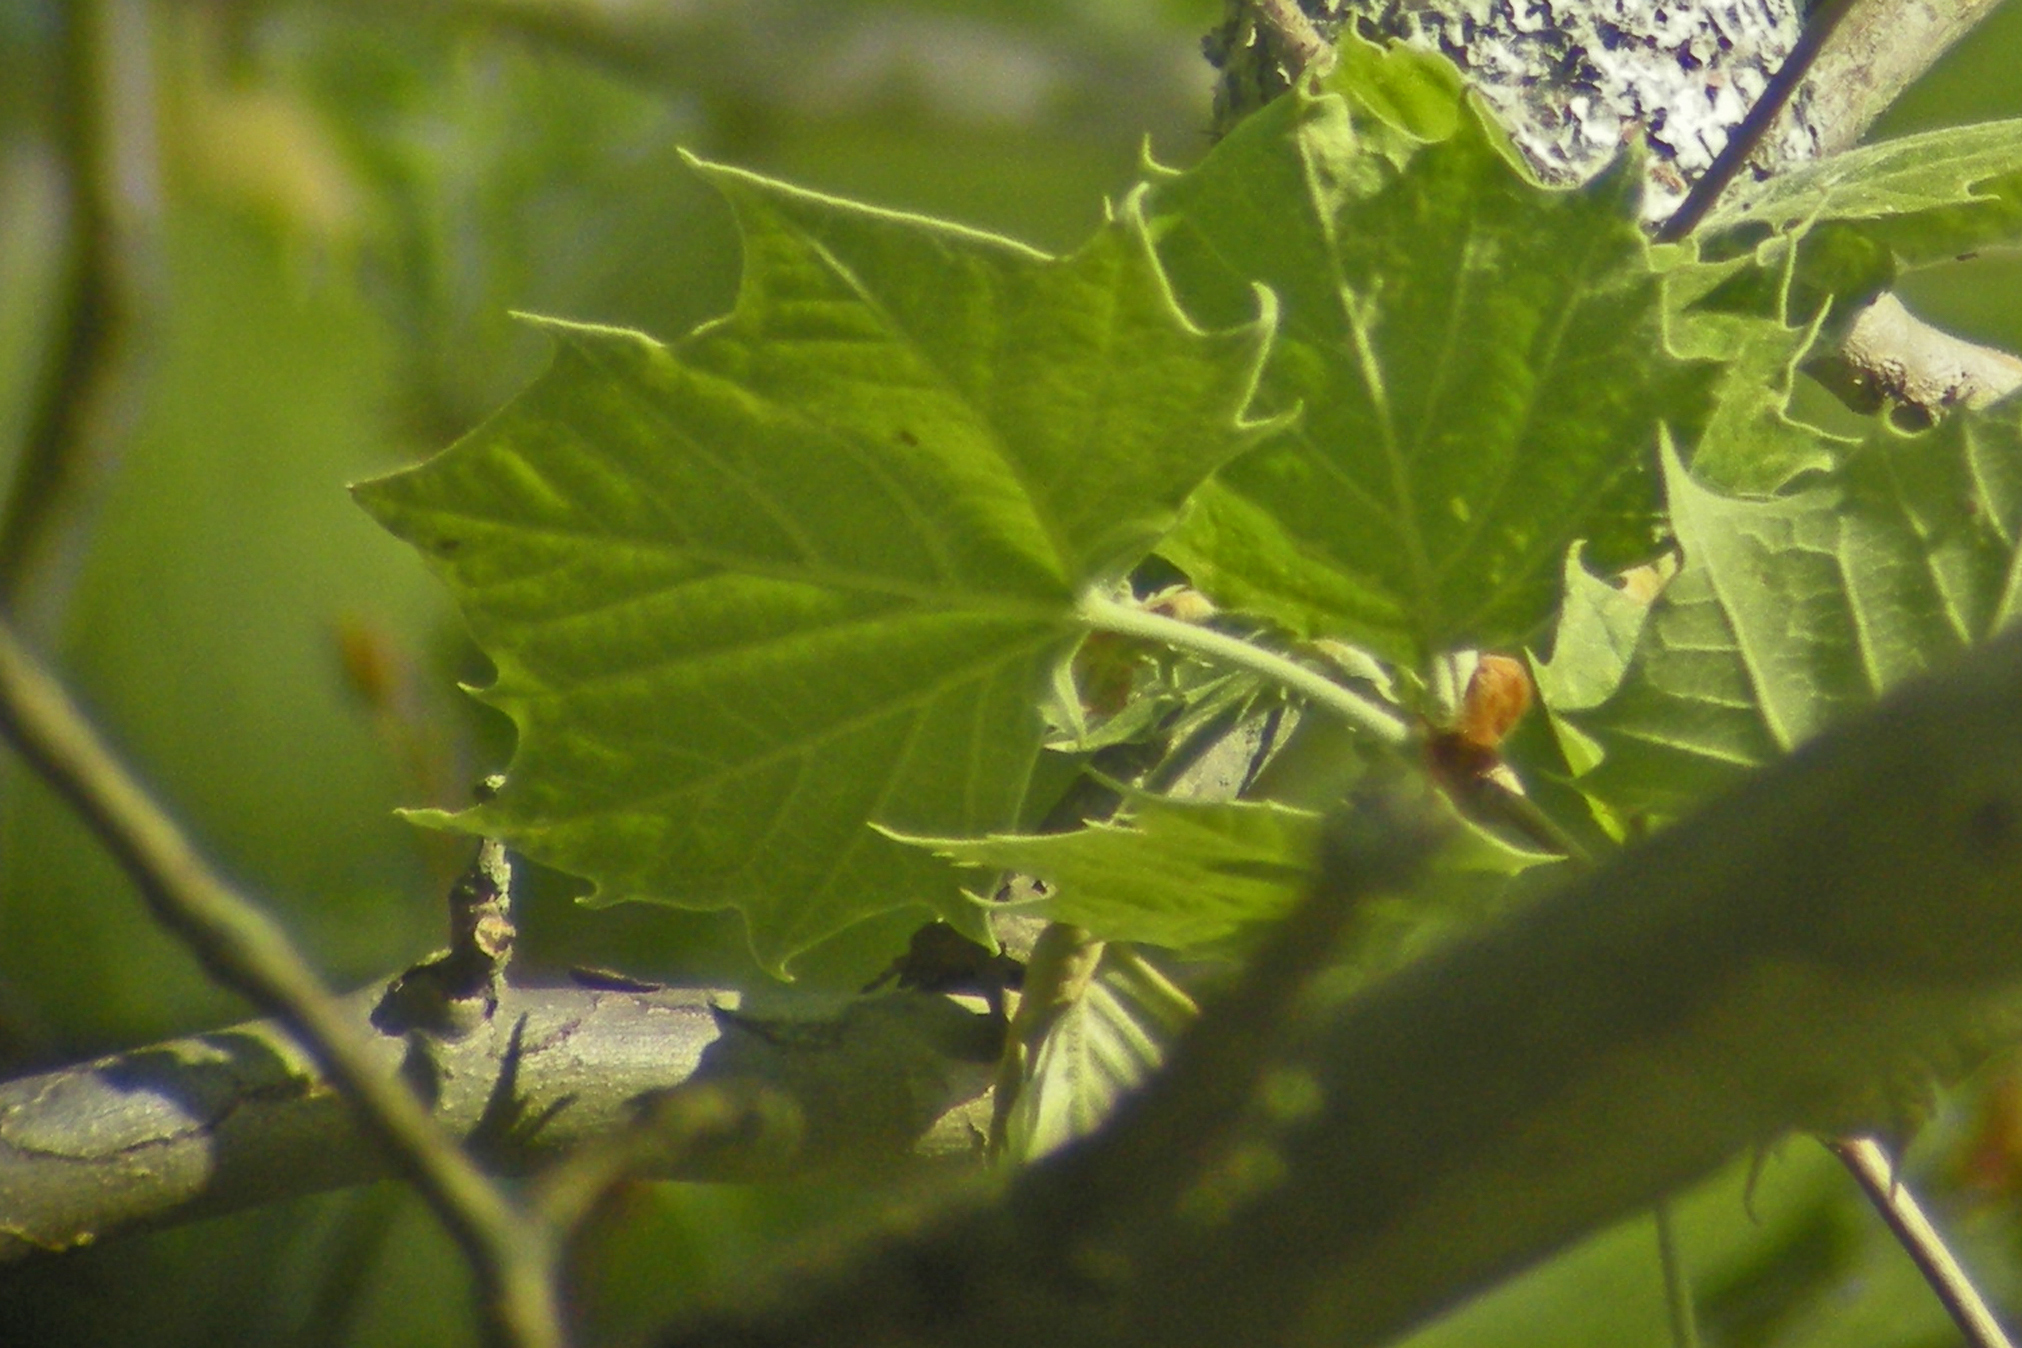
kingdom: Plantae
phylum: Tracheophyta
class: Magnoliopsida
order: Proteales
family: Platanaceae
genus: Platanus
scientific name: Platanus occidentalis
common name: American sycamore
